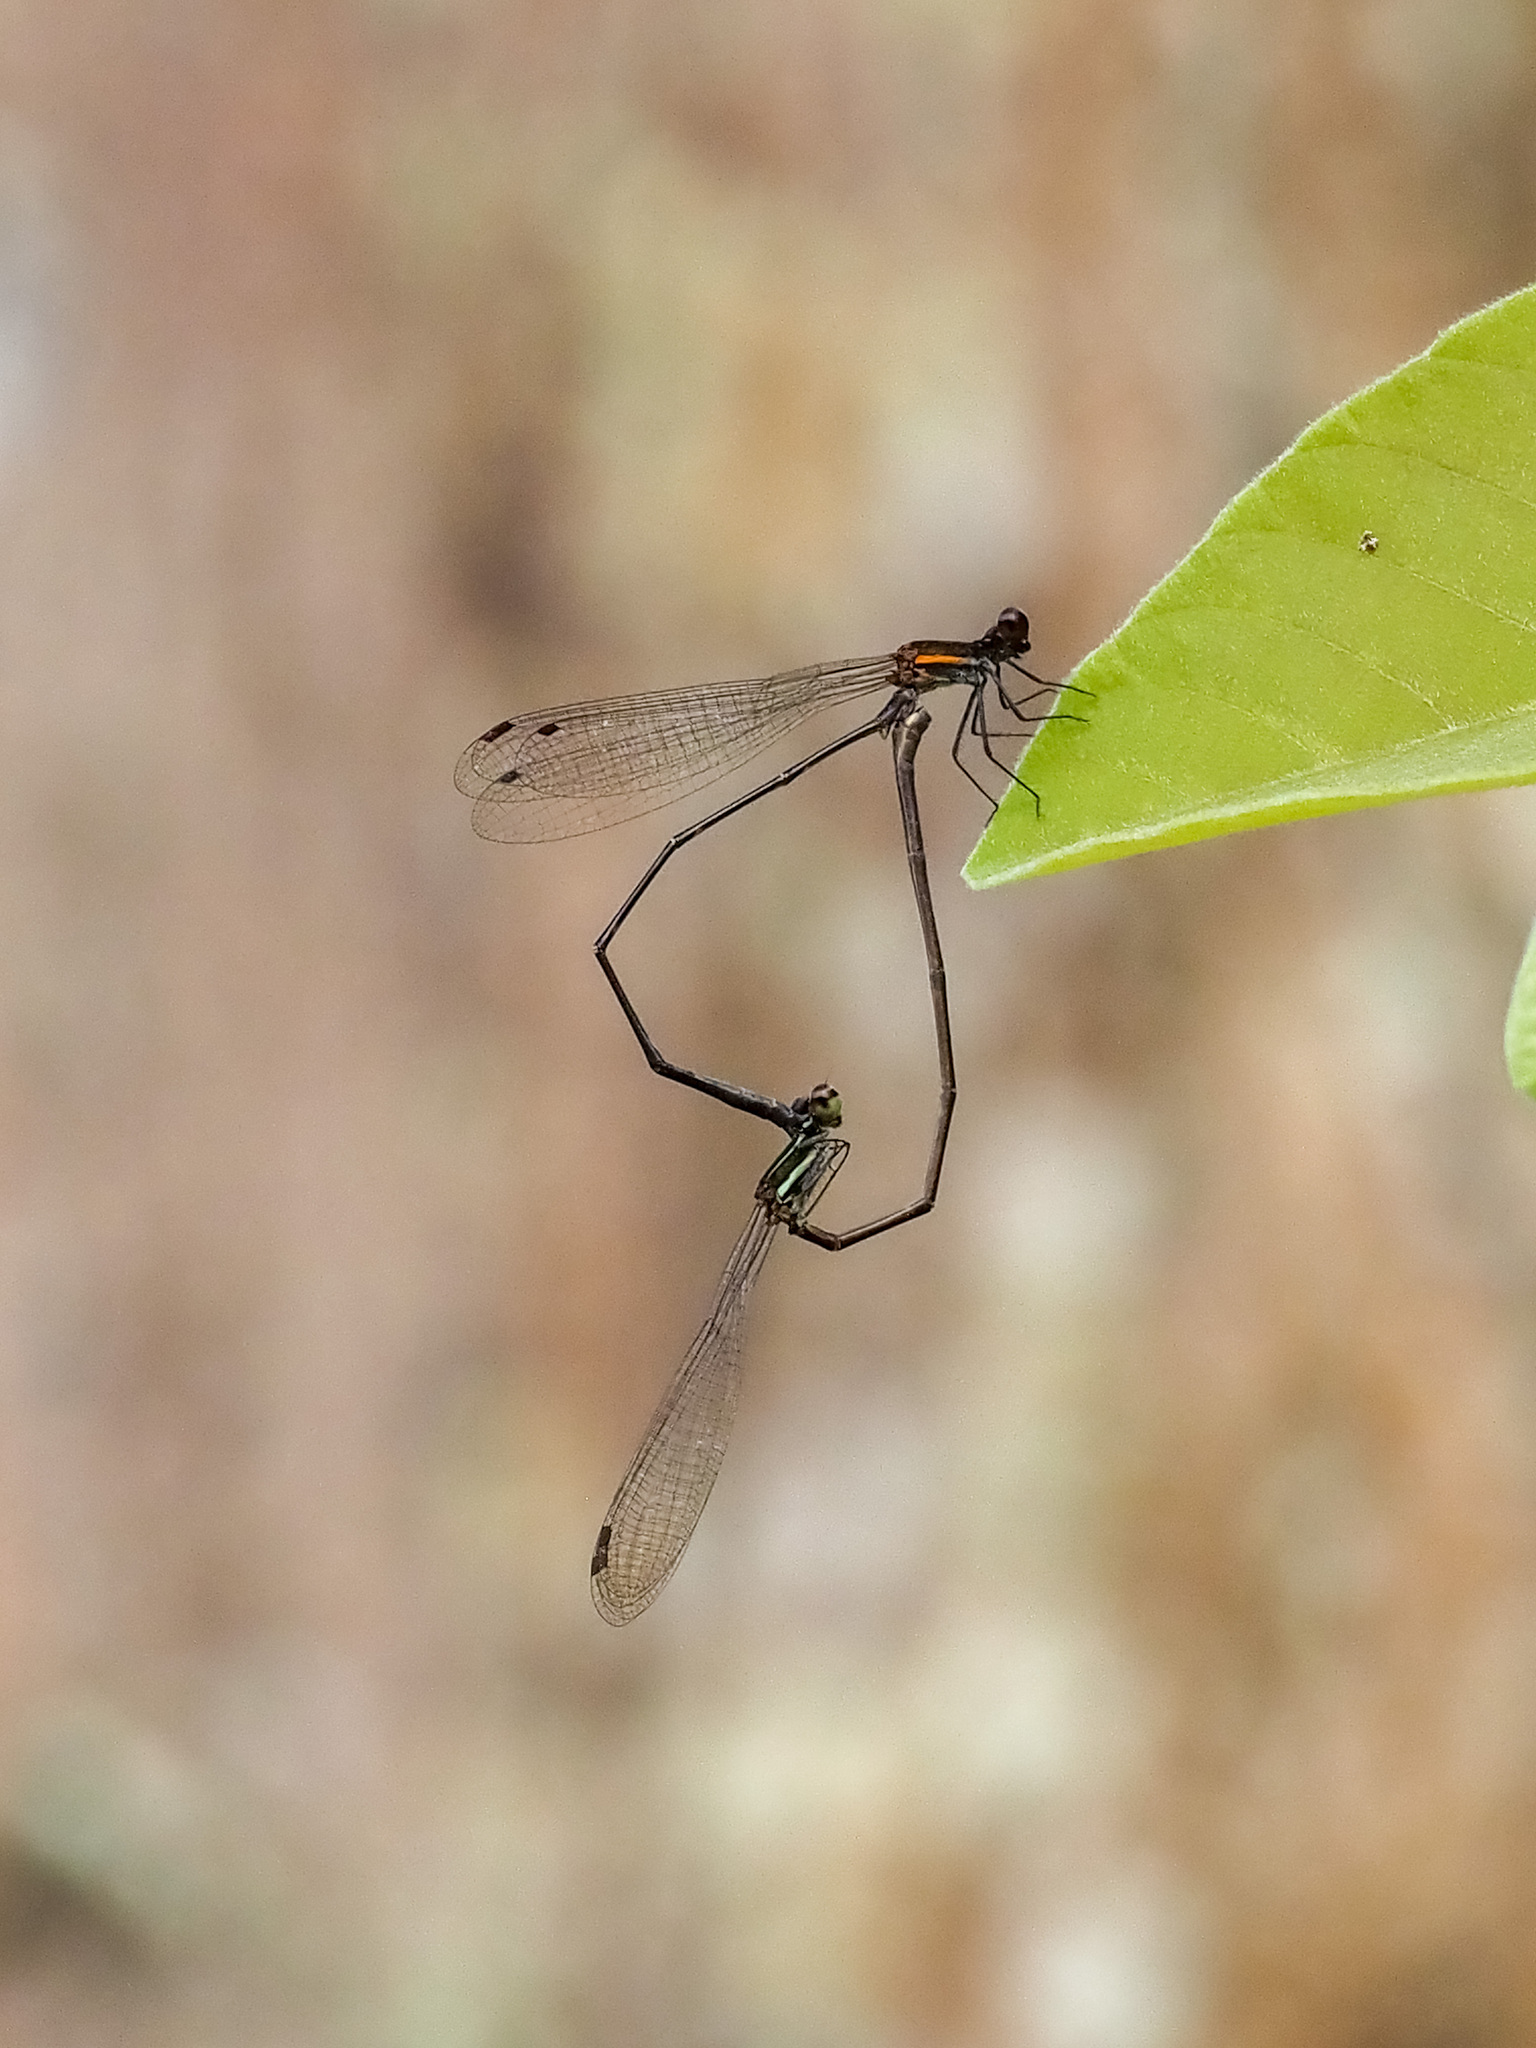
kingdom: Animalia
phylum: Arthropoda
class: Insecta
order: Odonata
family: Platycnemididae
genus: Prodasineura
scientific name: Prodasineura verticalis
